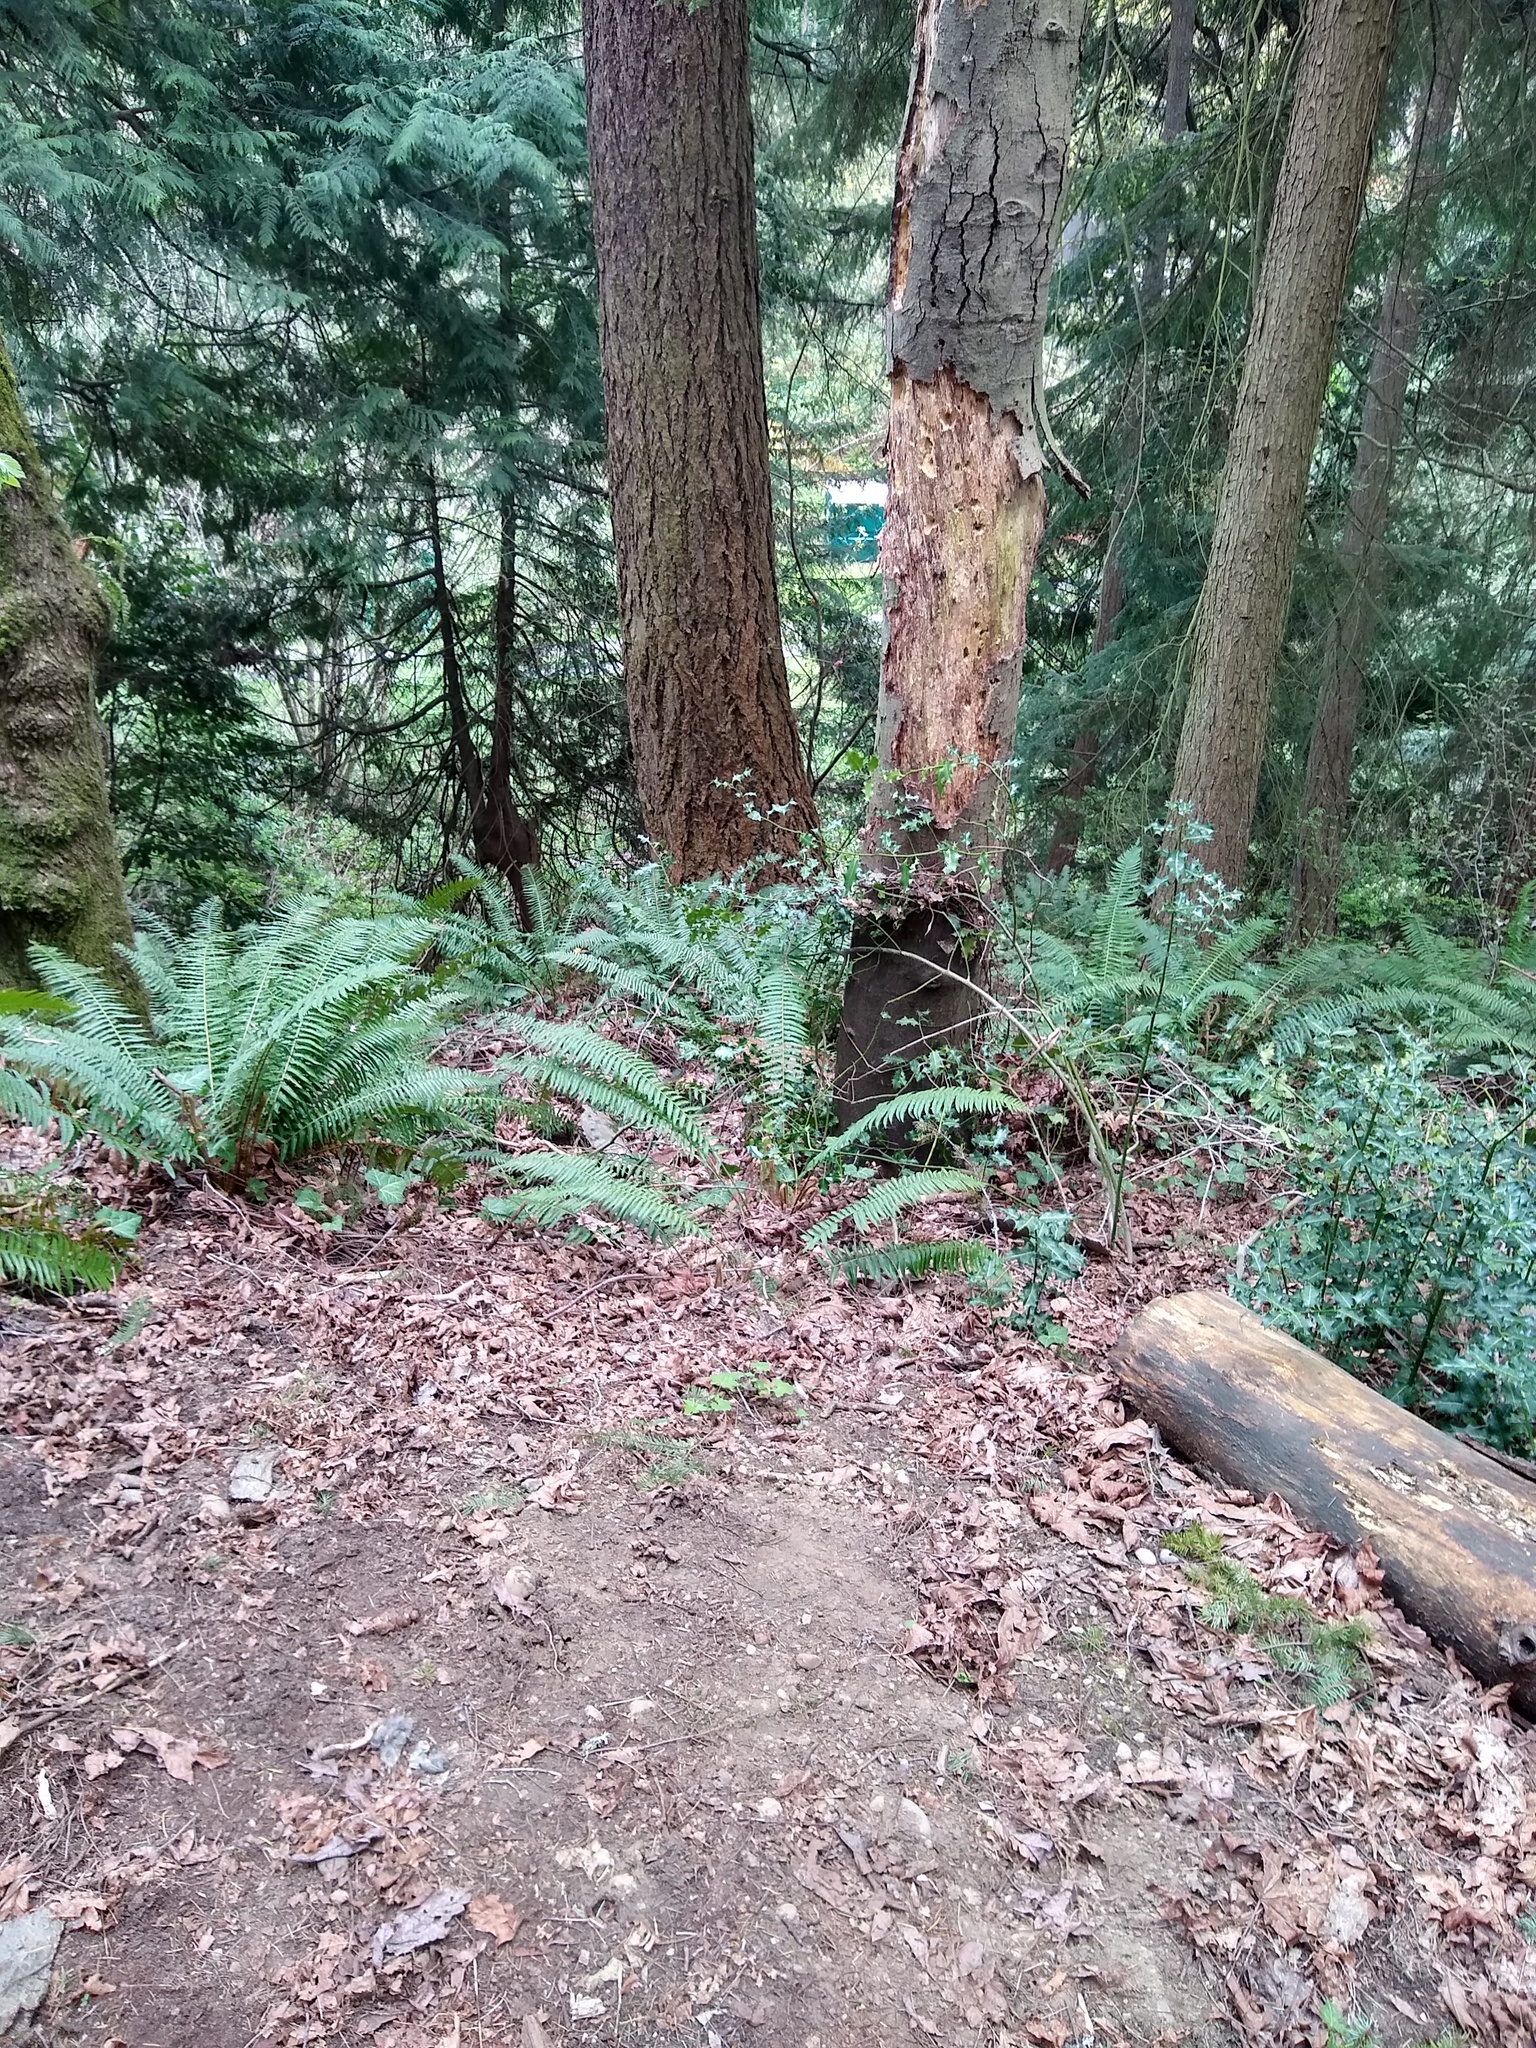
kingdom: Plantae
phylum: Tracheophyta
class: Polypodiopsida
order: Polypodiales
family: Dryopteridaceae
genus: Polystichum
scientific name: Polystichum munitum
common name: Western sword-fern
